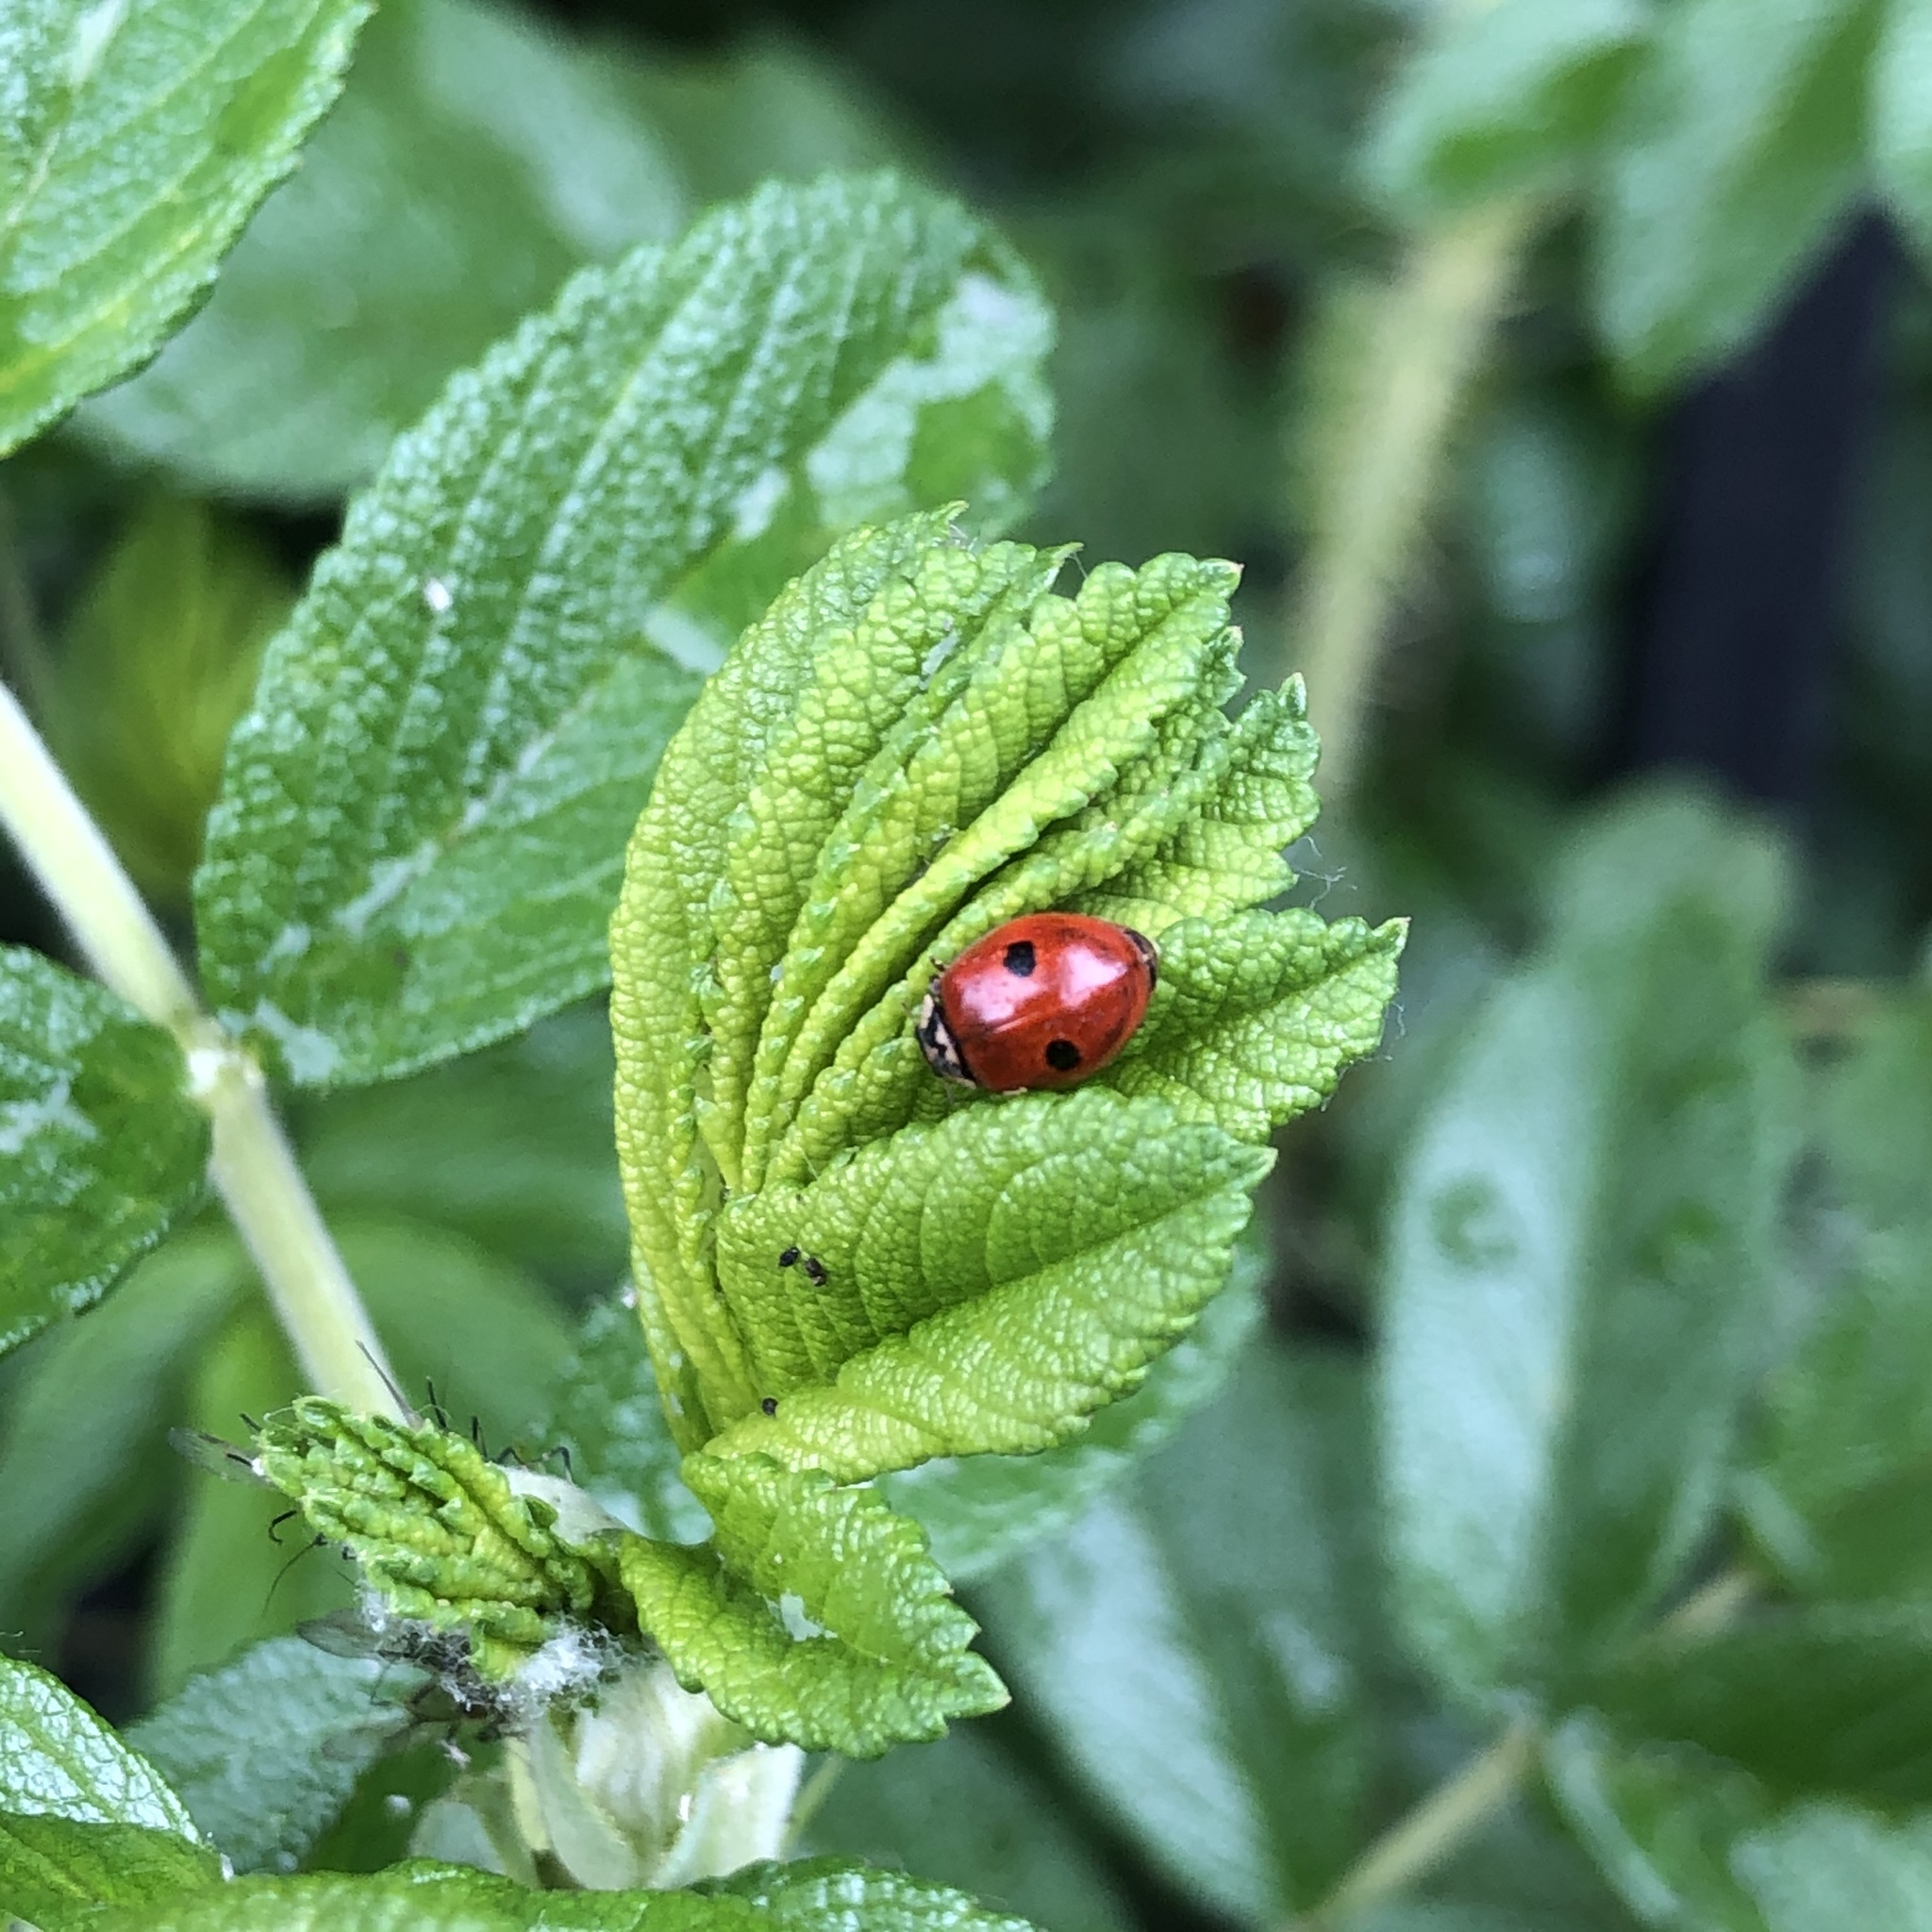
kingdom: Animalia
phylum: Arthropoda
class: Insecta
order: Coleoptera
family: Coccinellidae
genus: Adalia
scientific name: Adalia bipunctata
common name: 2-spot ladybird
